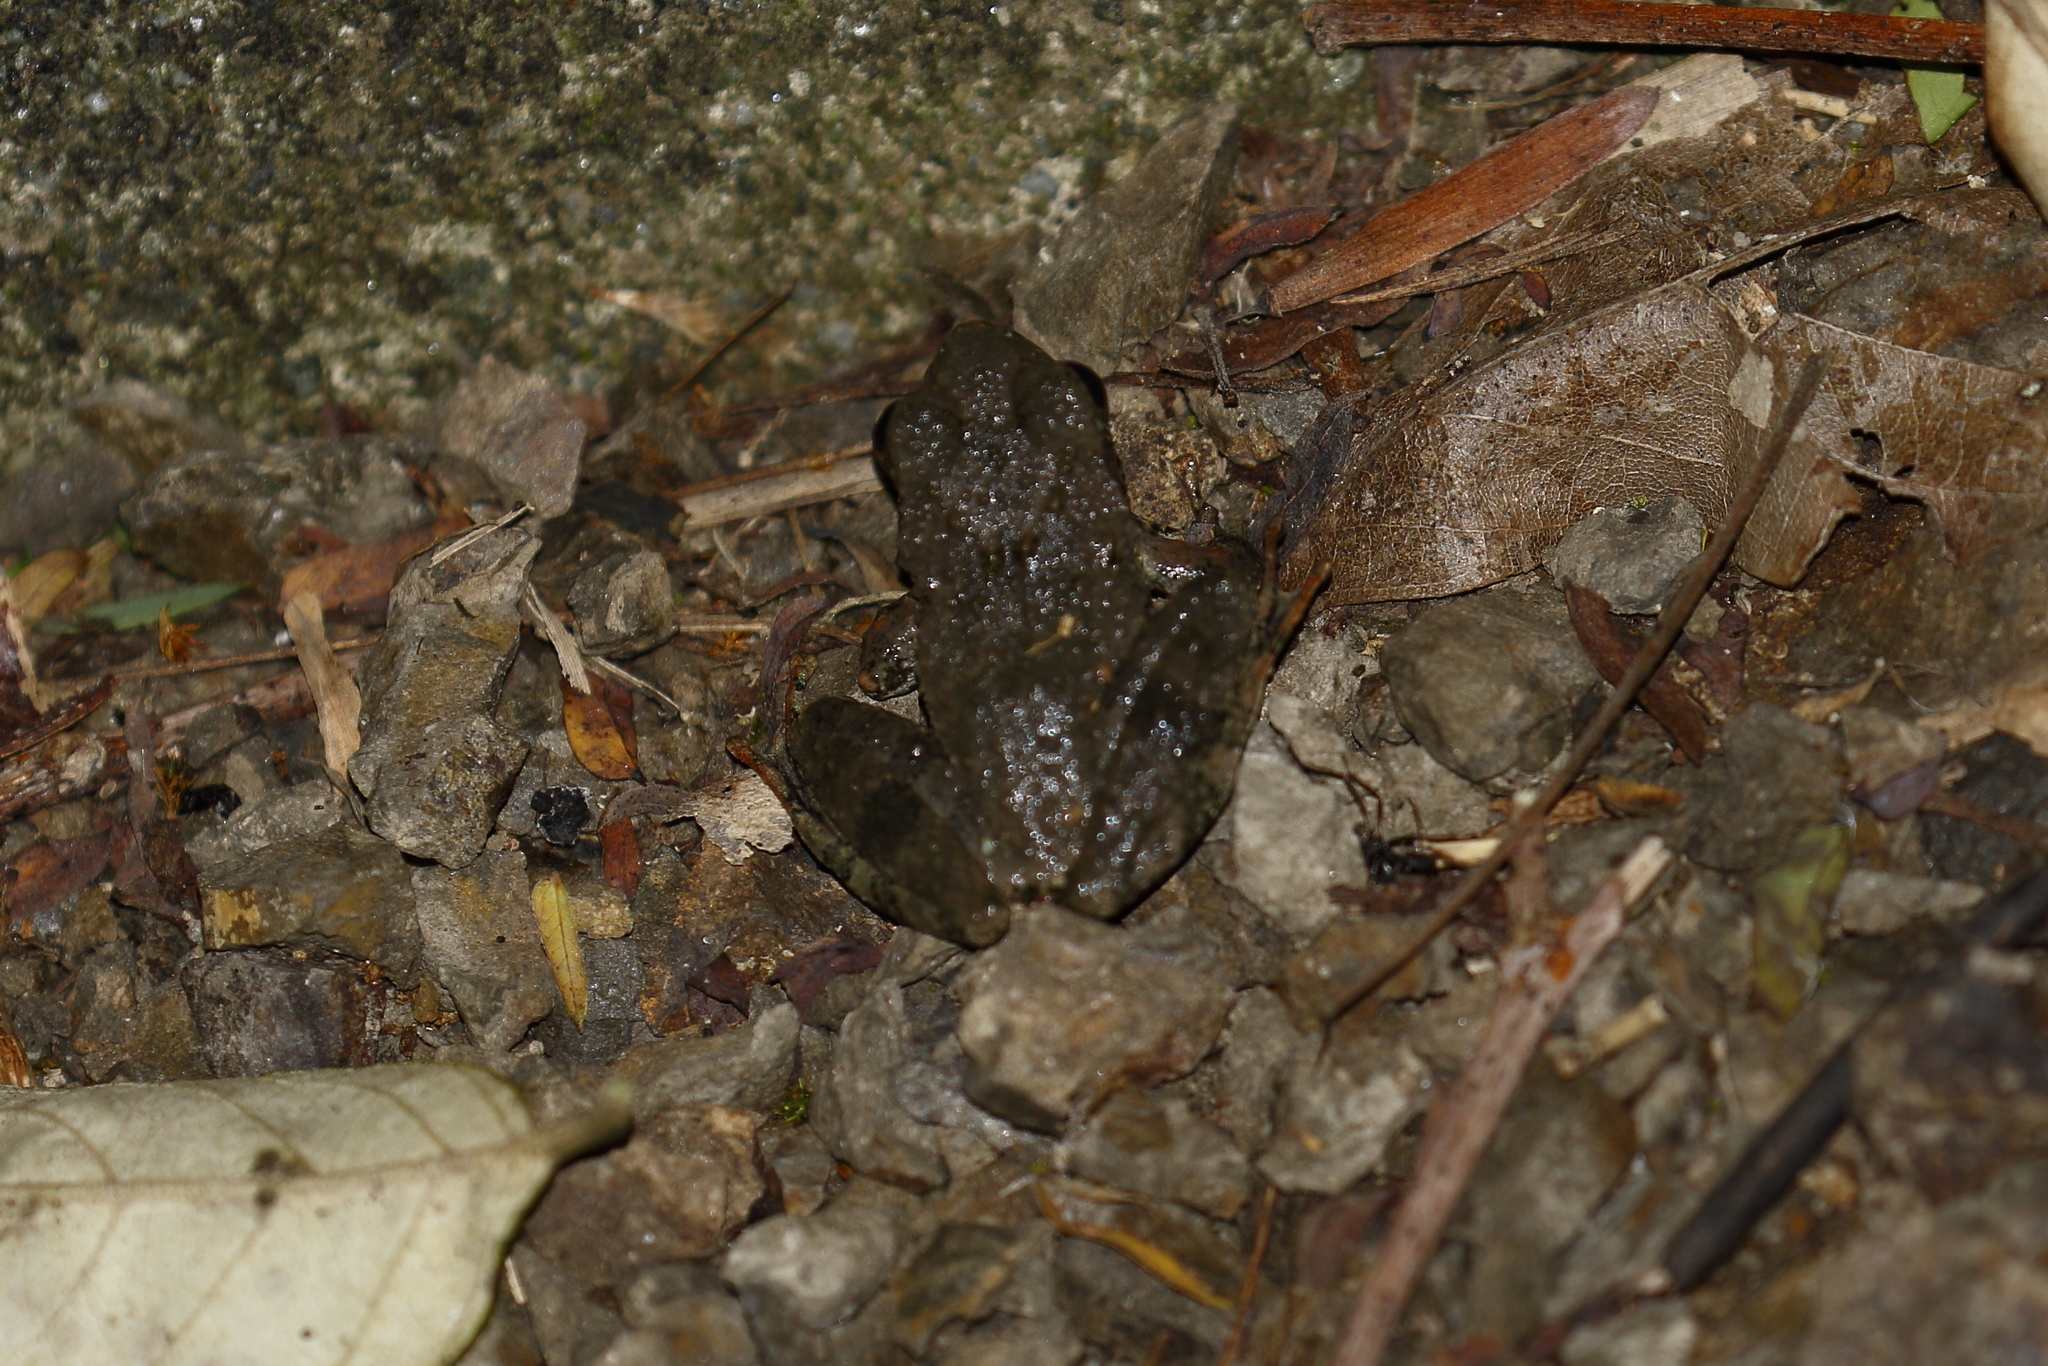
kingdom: Animalia
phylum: Chordata
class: Amphibia
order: Anura
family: Rhacophoridae
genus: Buergeria
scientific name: Buergeria otai
